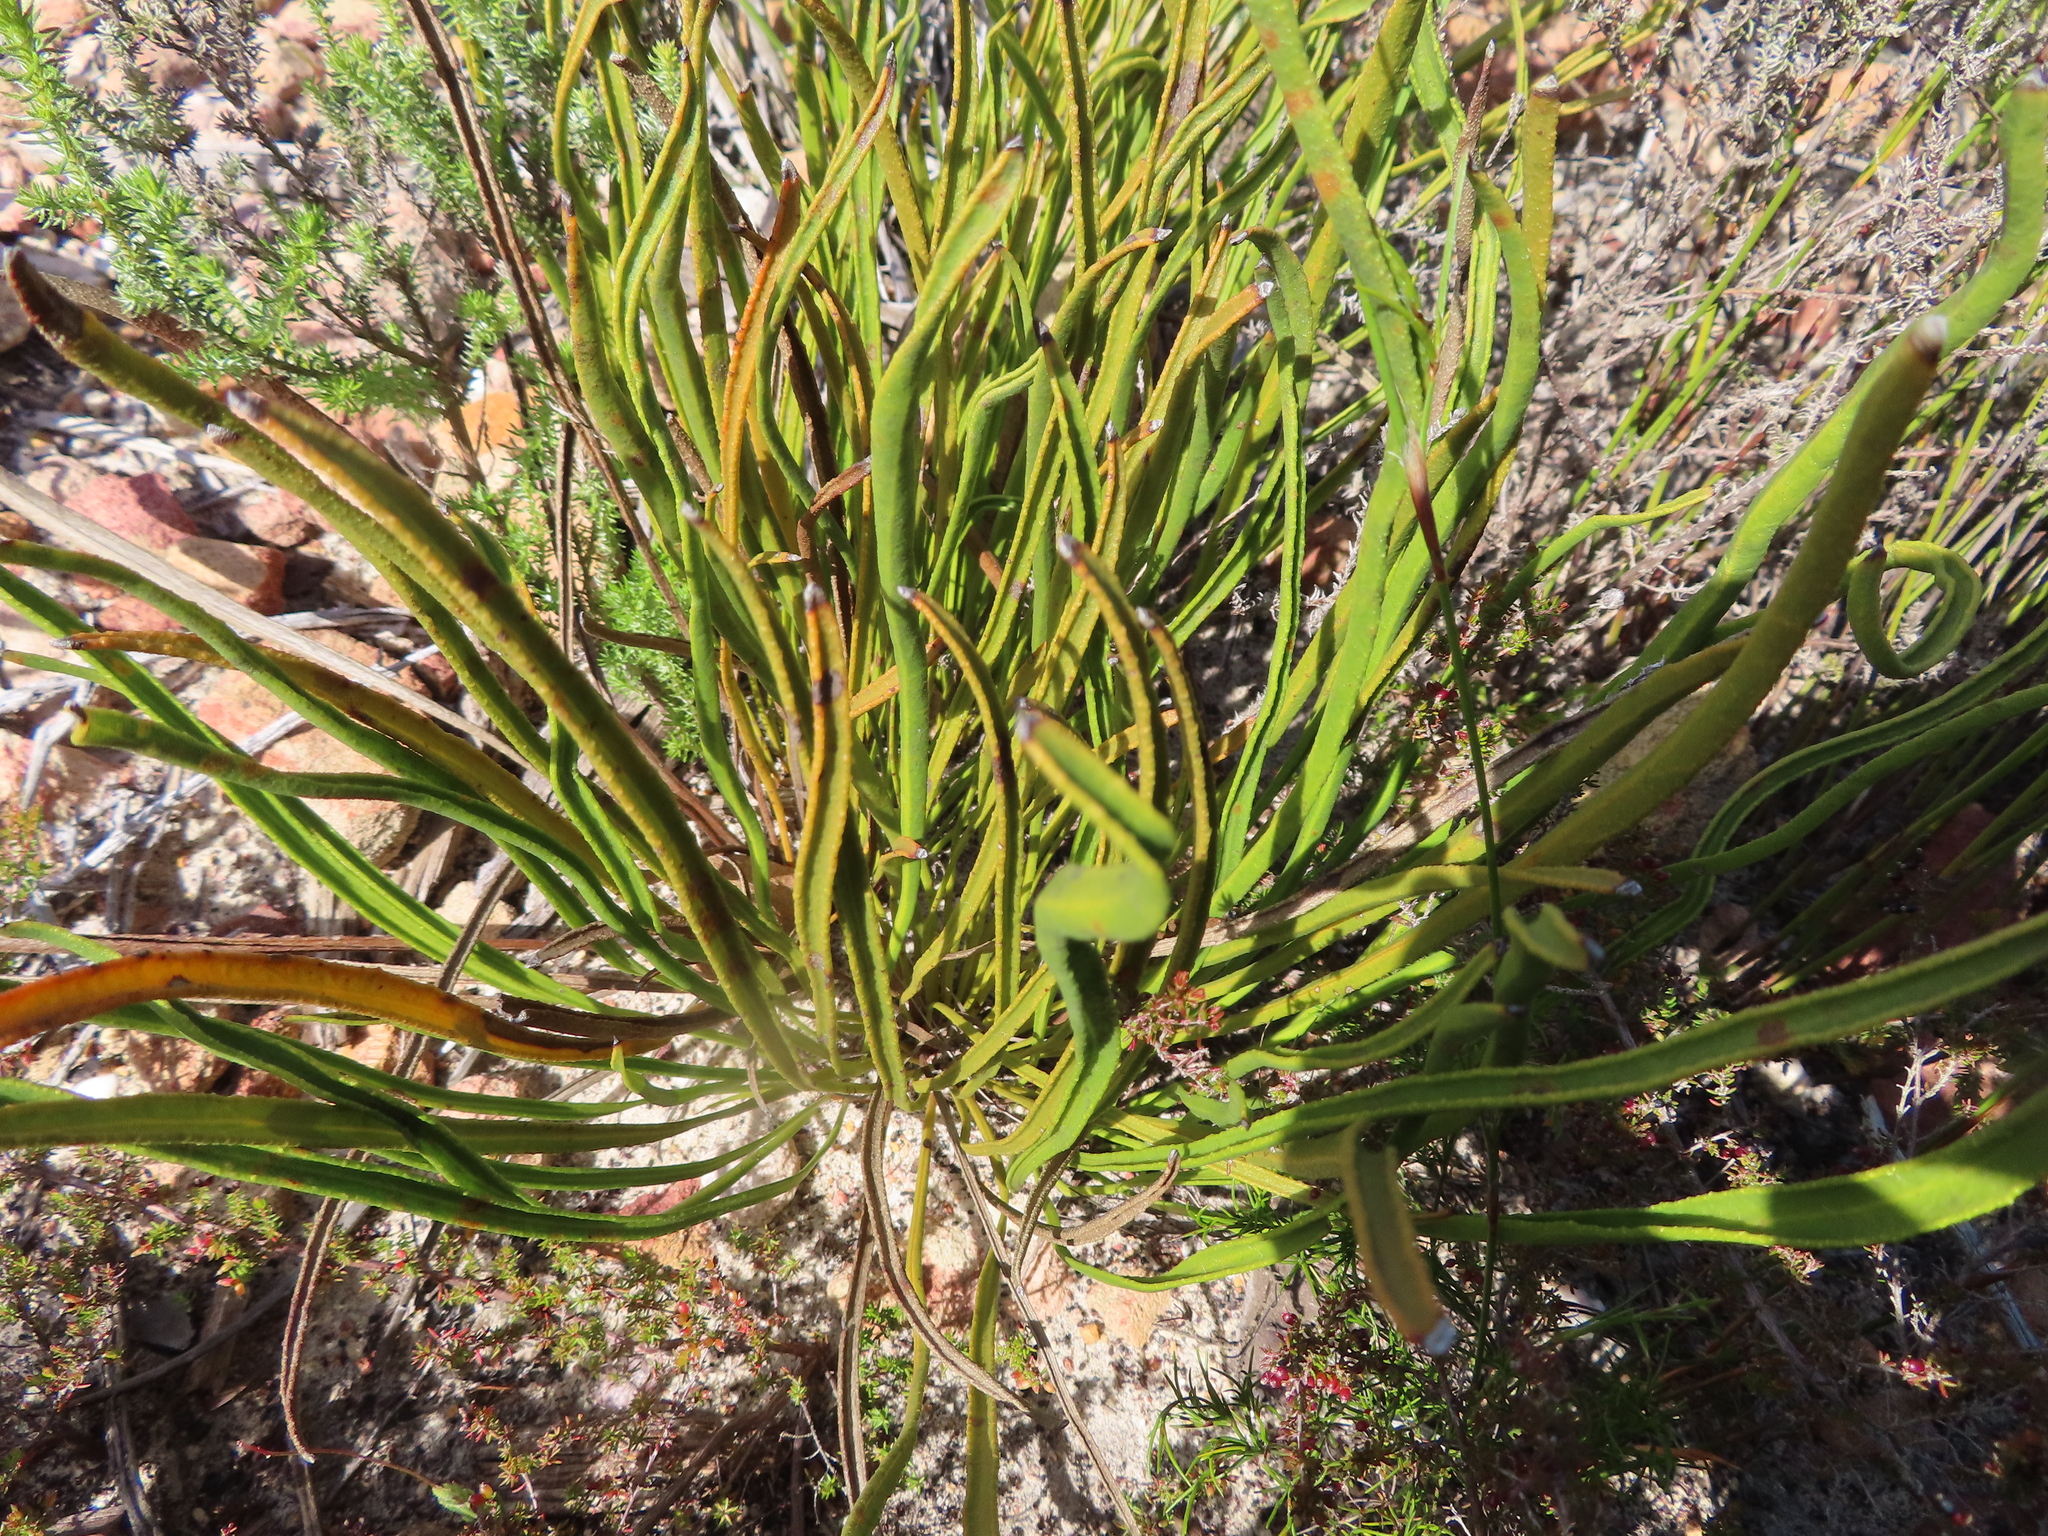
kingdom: Plantae
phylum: Tracheophyta
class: Magnoliopsida
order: Proteales
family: Proteaceae
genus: Protea
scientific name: Protea scabra
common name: Sandpaper-leaf sugarbush
